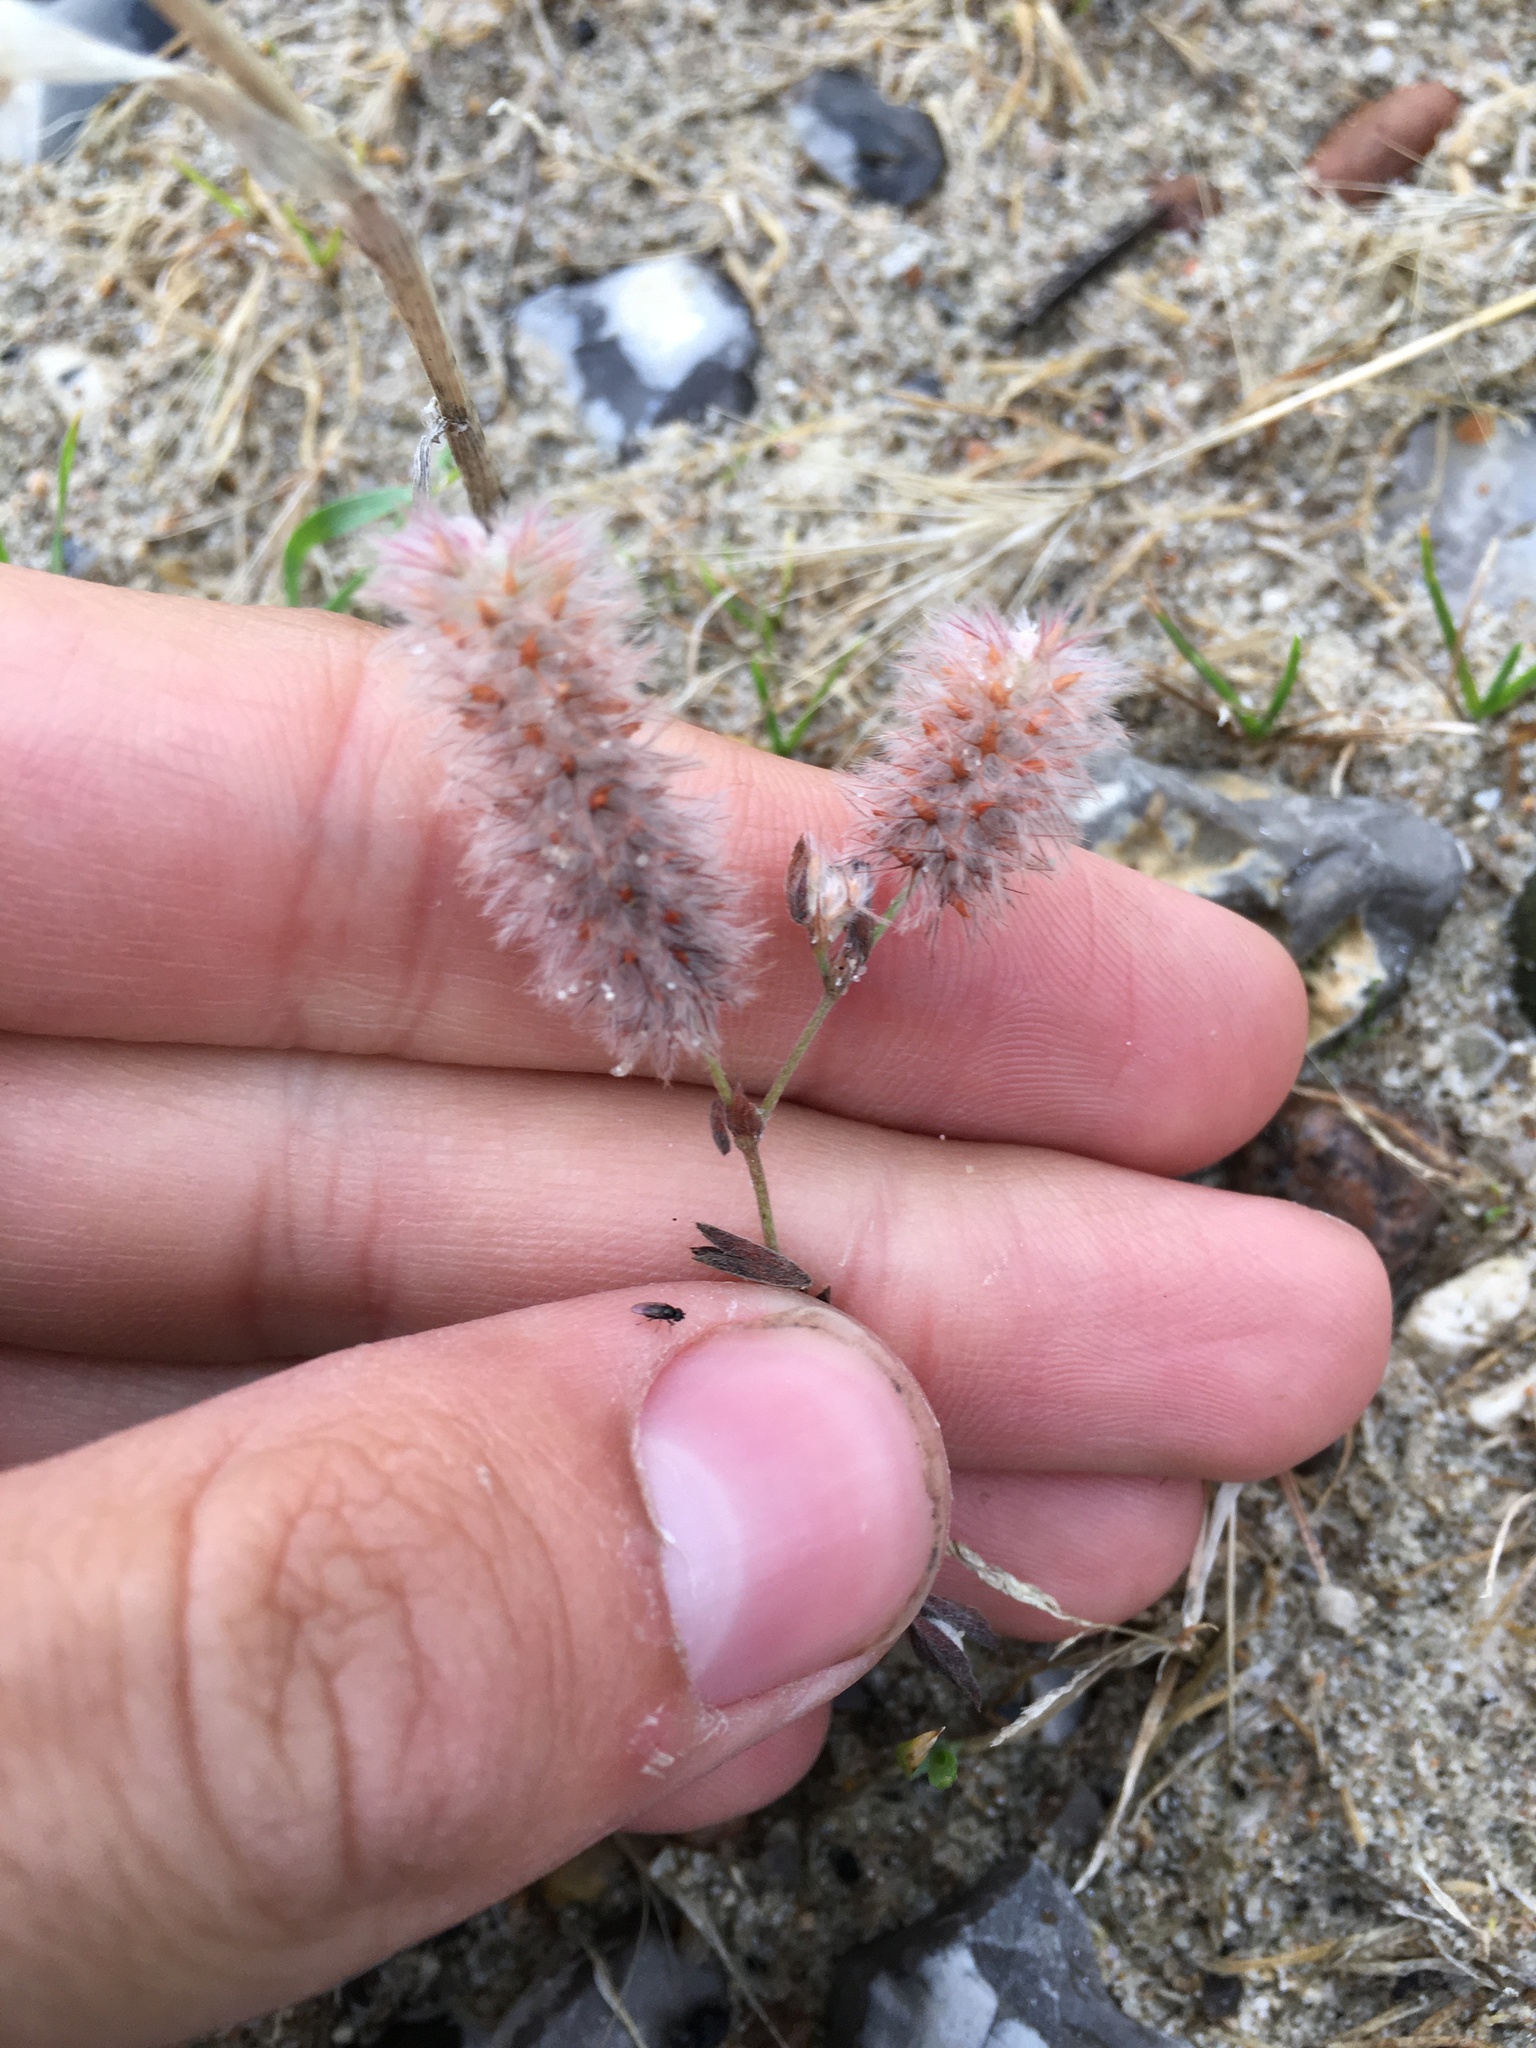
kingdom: Plantae
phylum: Tracheophyta
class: Magnoliopsida
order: Fabales
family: Fabaceae
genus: Trifolium
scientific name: Trifolium arvense
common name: Hare's-foot clover
